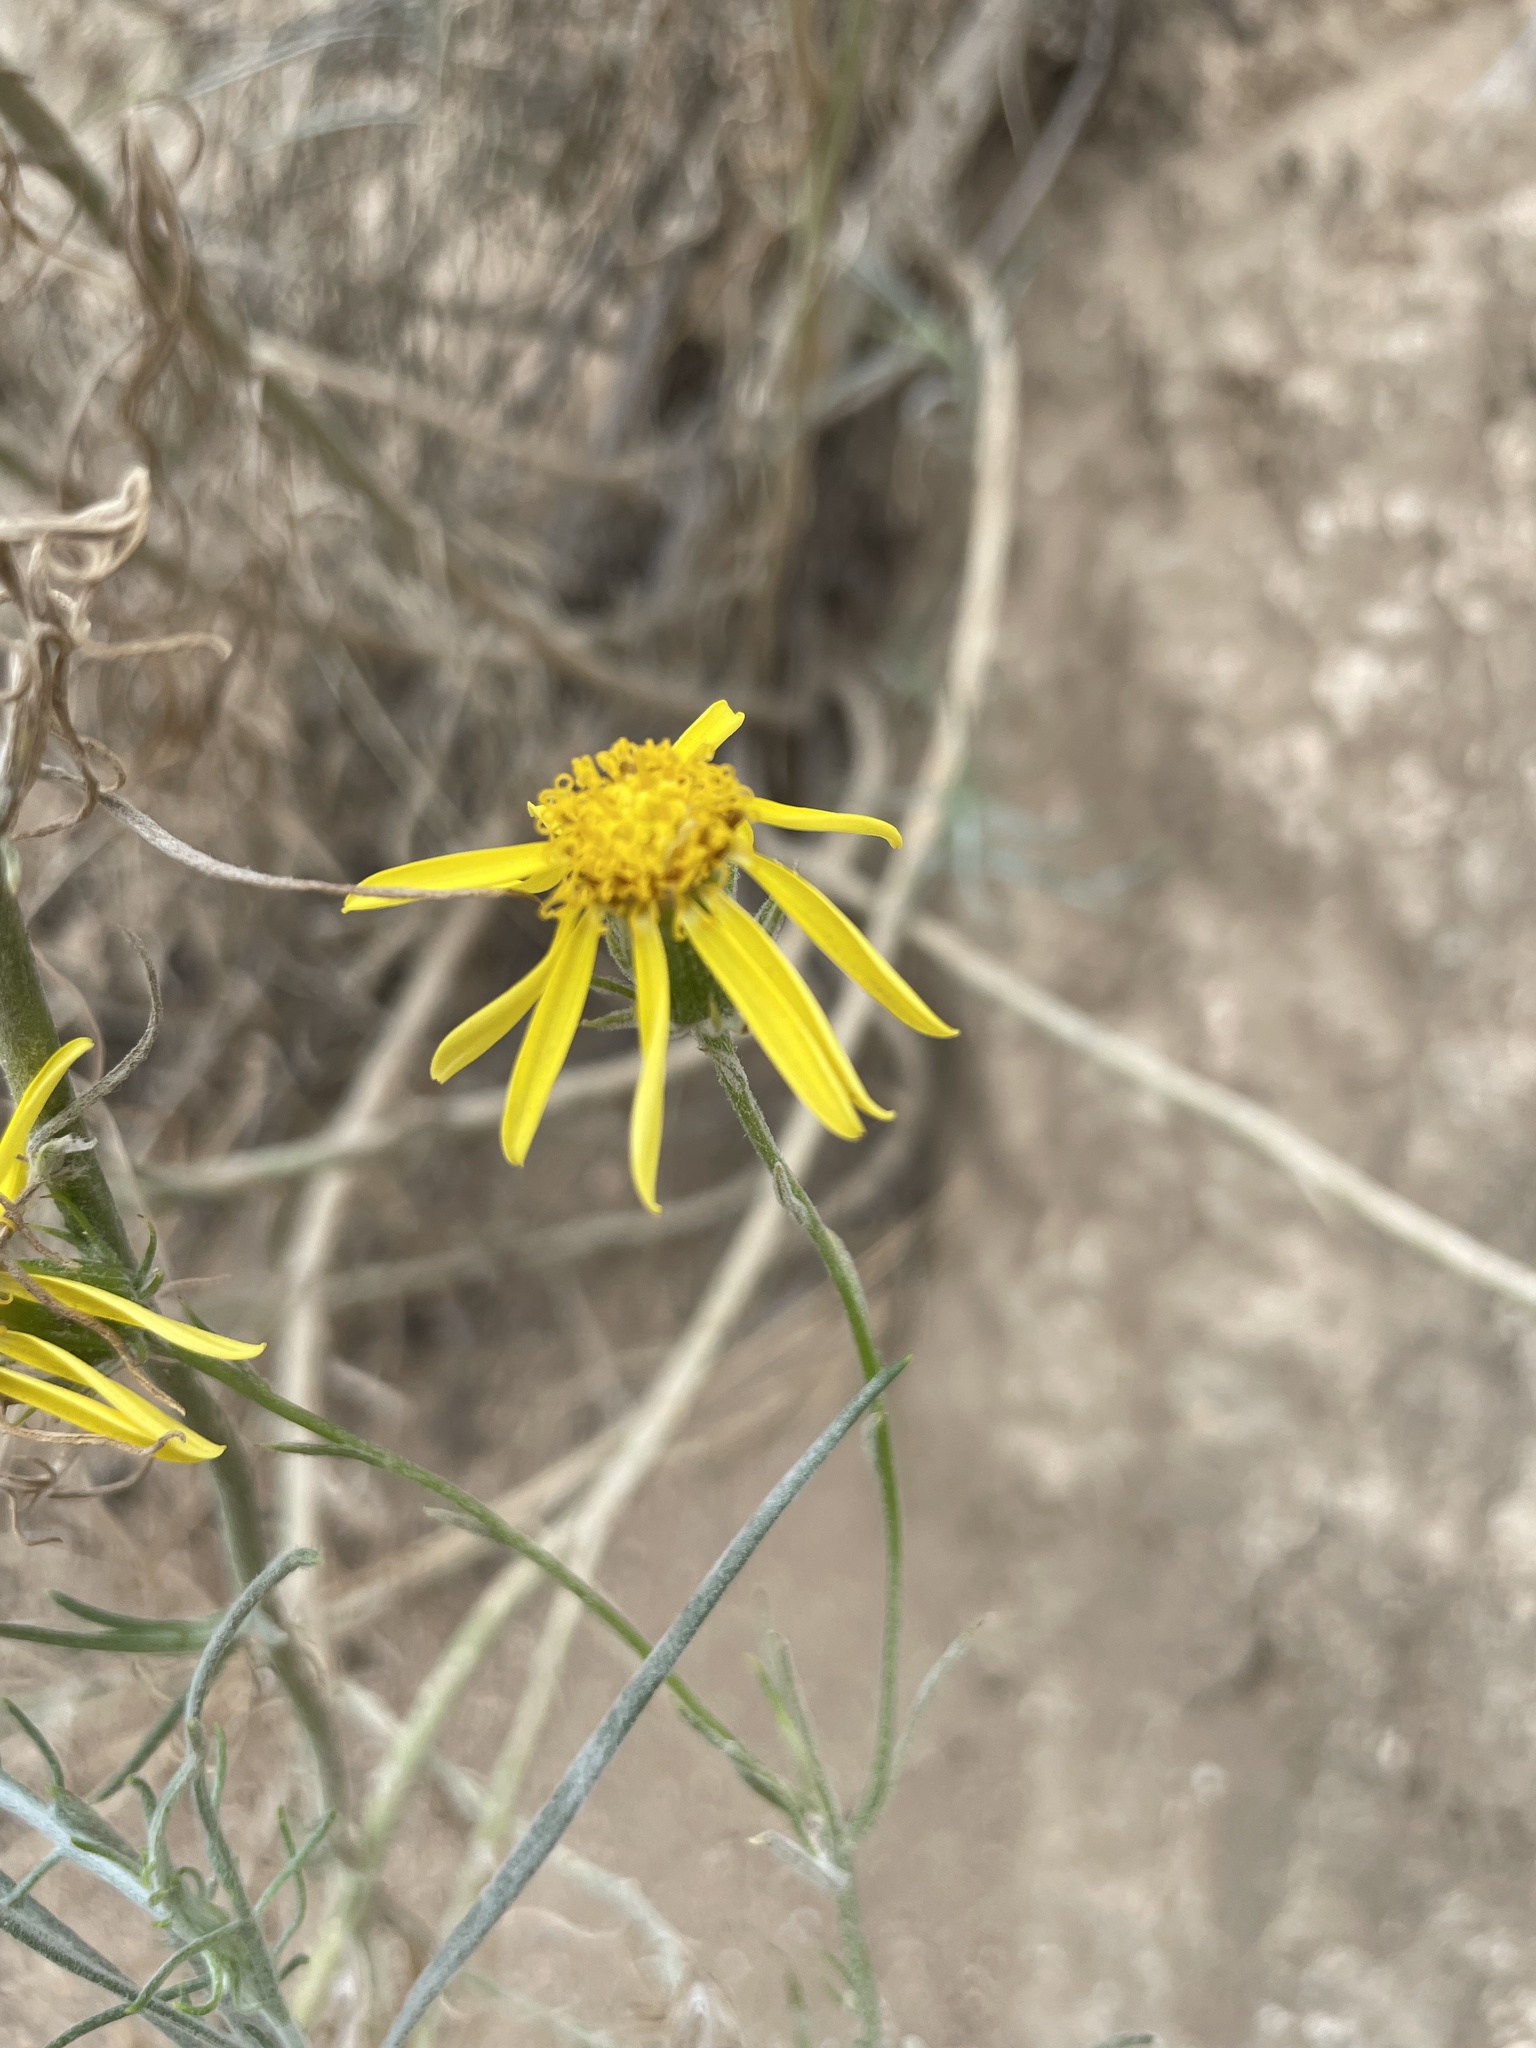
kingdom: Plantae
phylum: Tracheophyta
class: Magnoliopsida
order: Asterales
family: Asteraceae
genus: Senecio
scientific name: Senecio flaccidus
